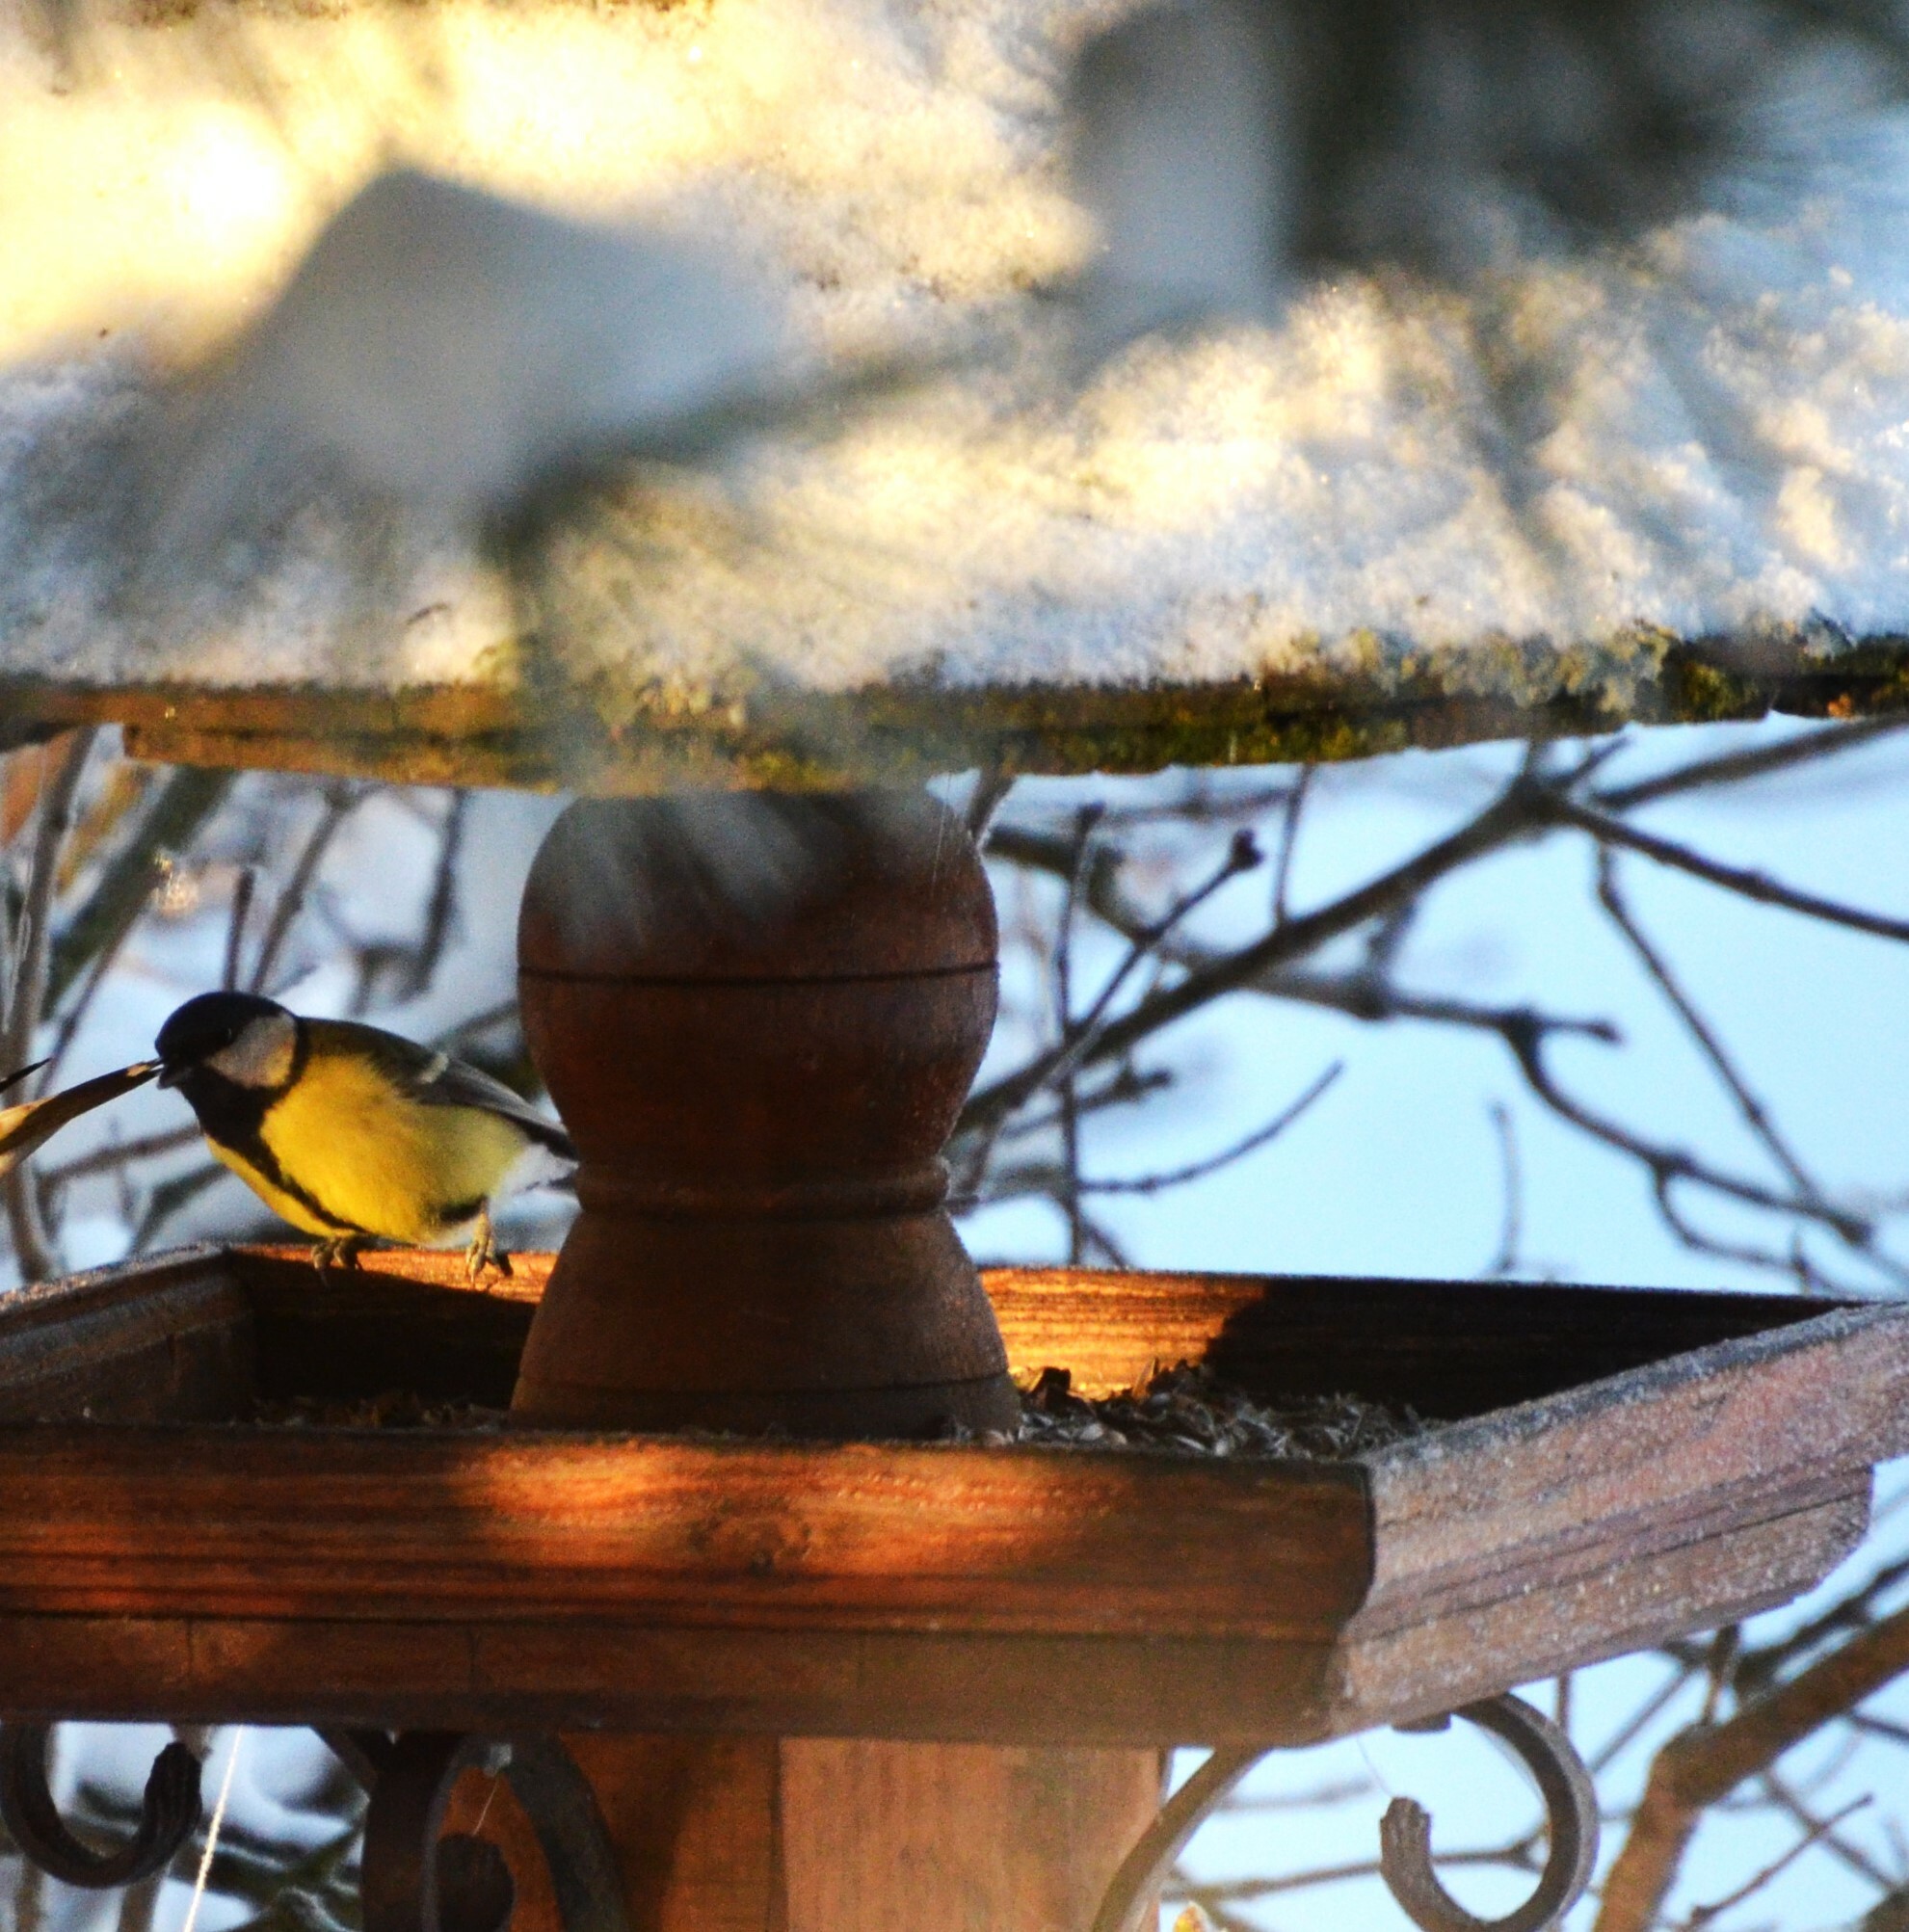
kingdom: Animalia
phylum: Chordata
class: Aves
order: Passeriformes
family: Paridae
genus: Parus
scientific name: Parus major
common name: Great tit
